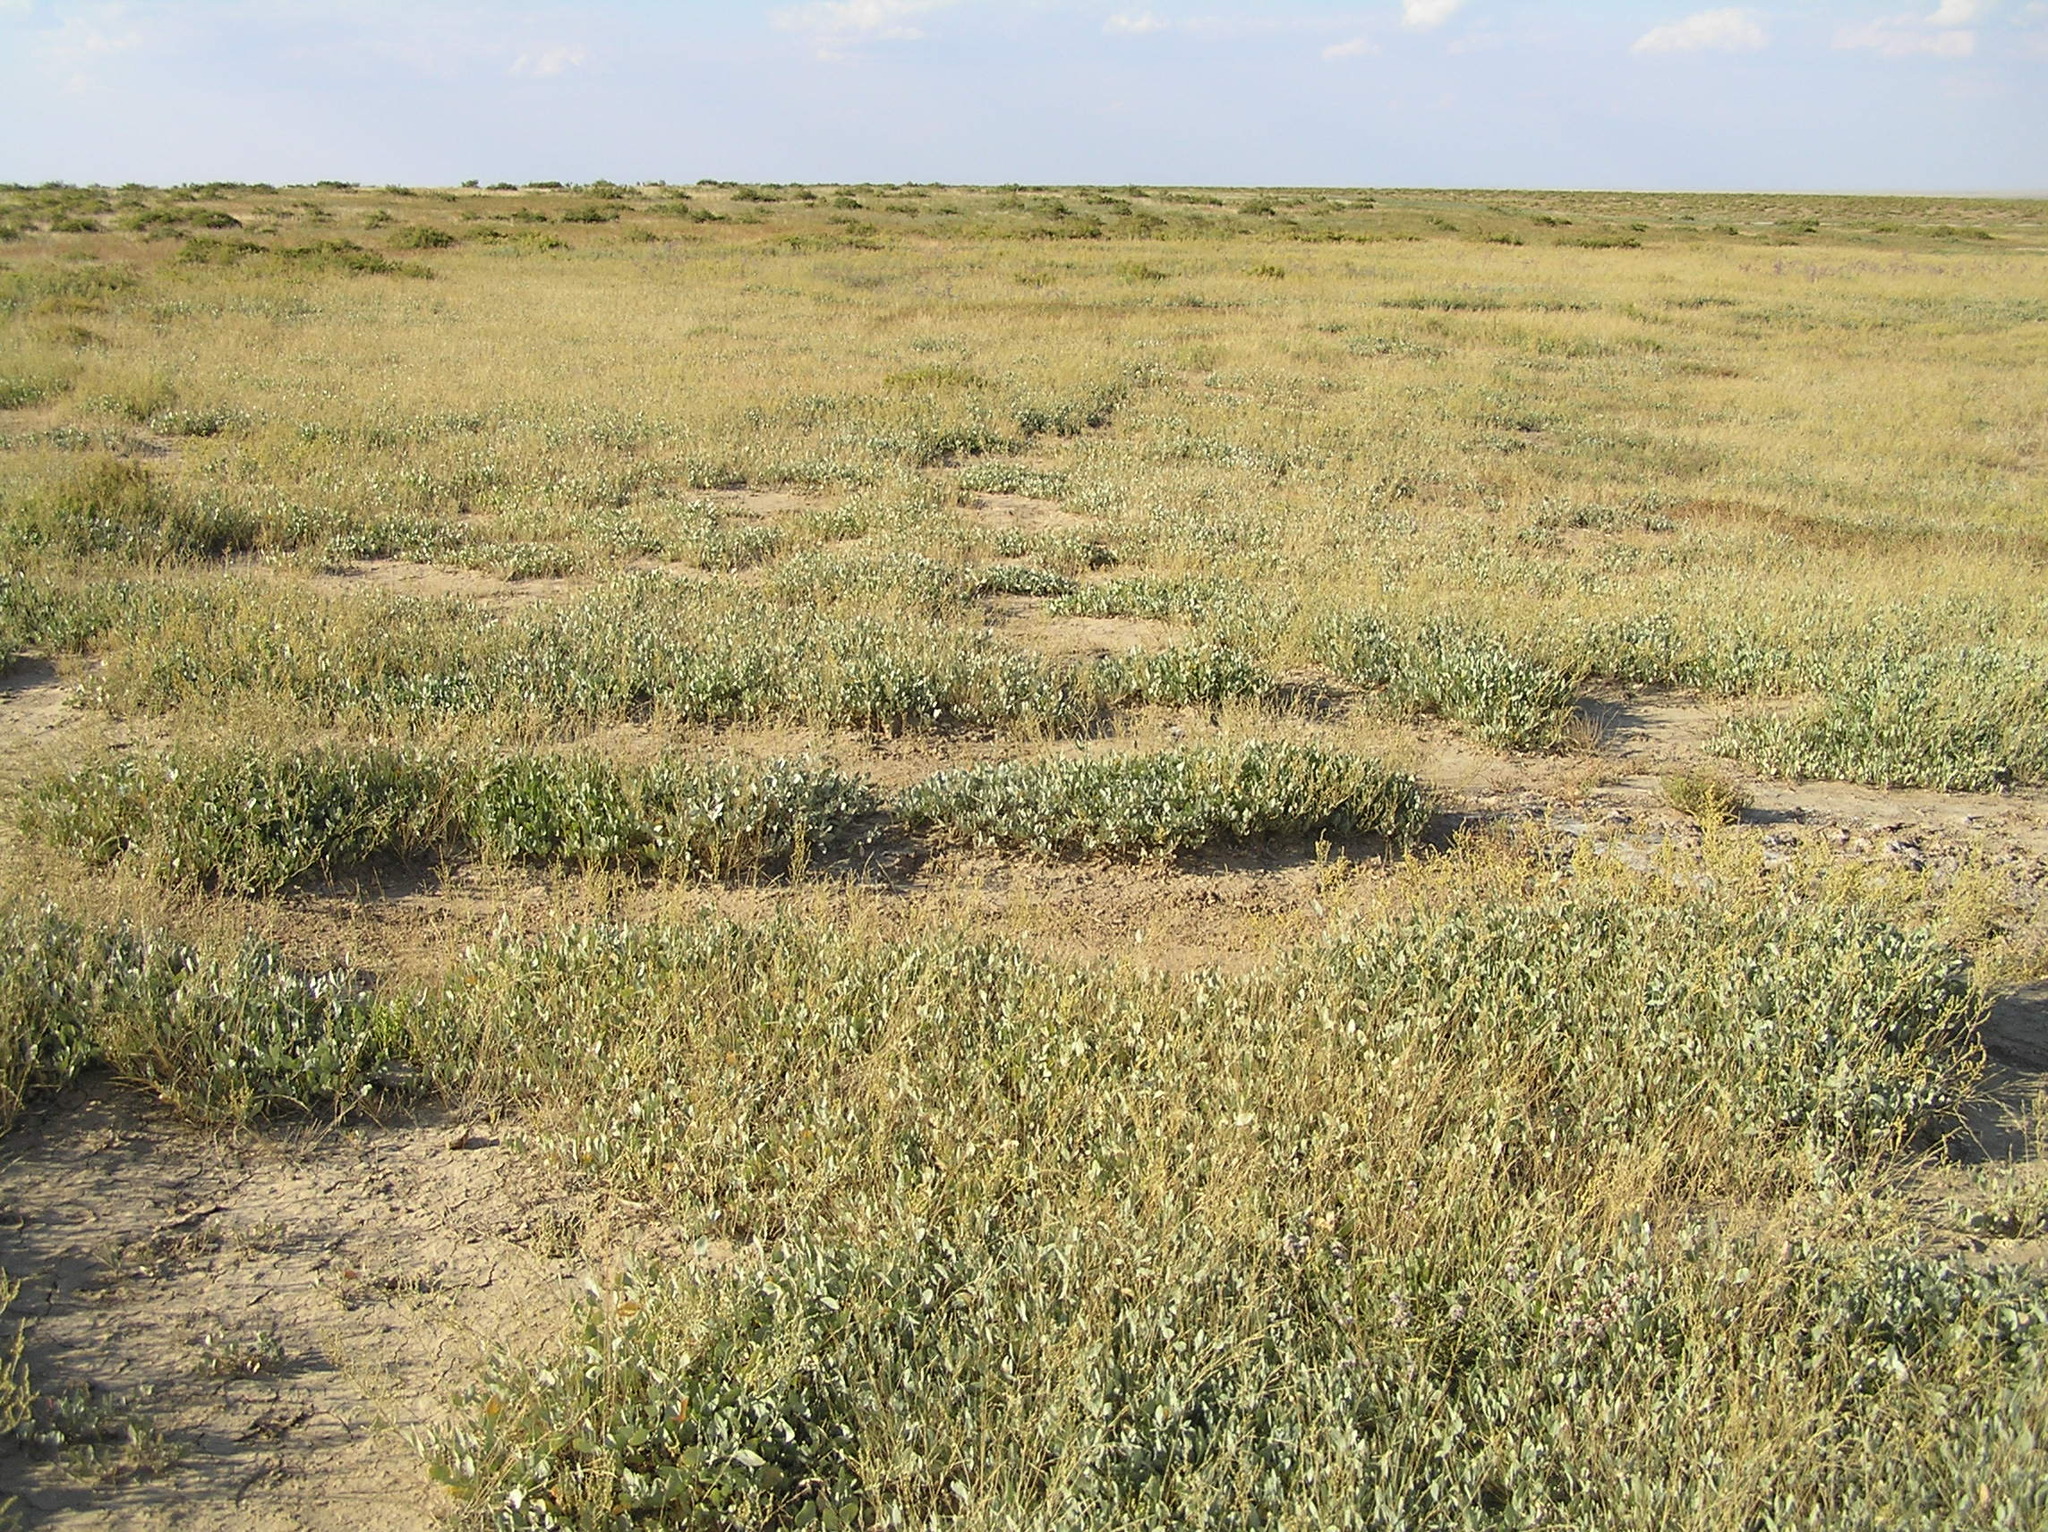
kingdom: Plantae
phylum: Tracheophyta
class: Magnoliopsida
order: Caryophyllales
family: Amaranthaceae
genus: Halimione
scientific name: Halimione verrucifera
